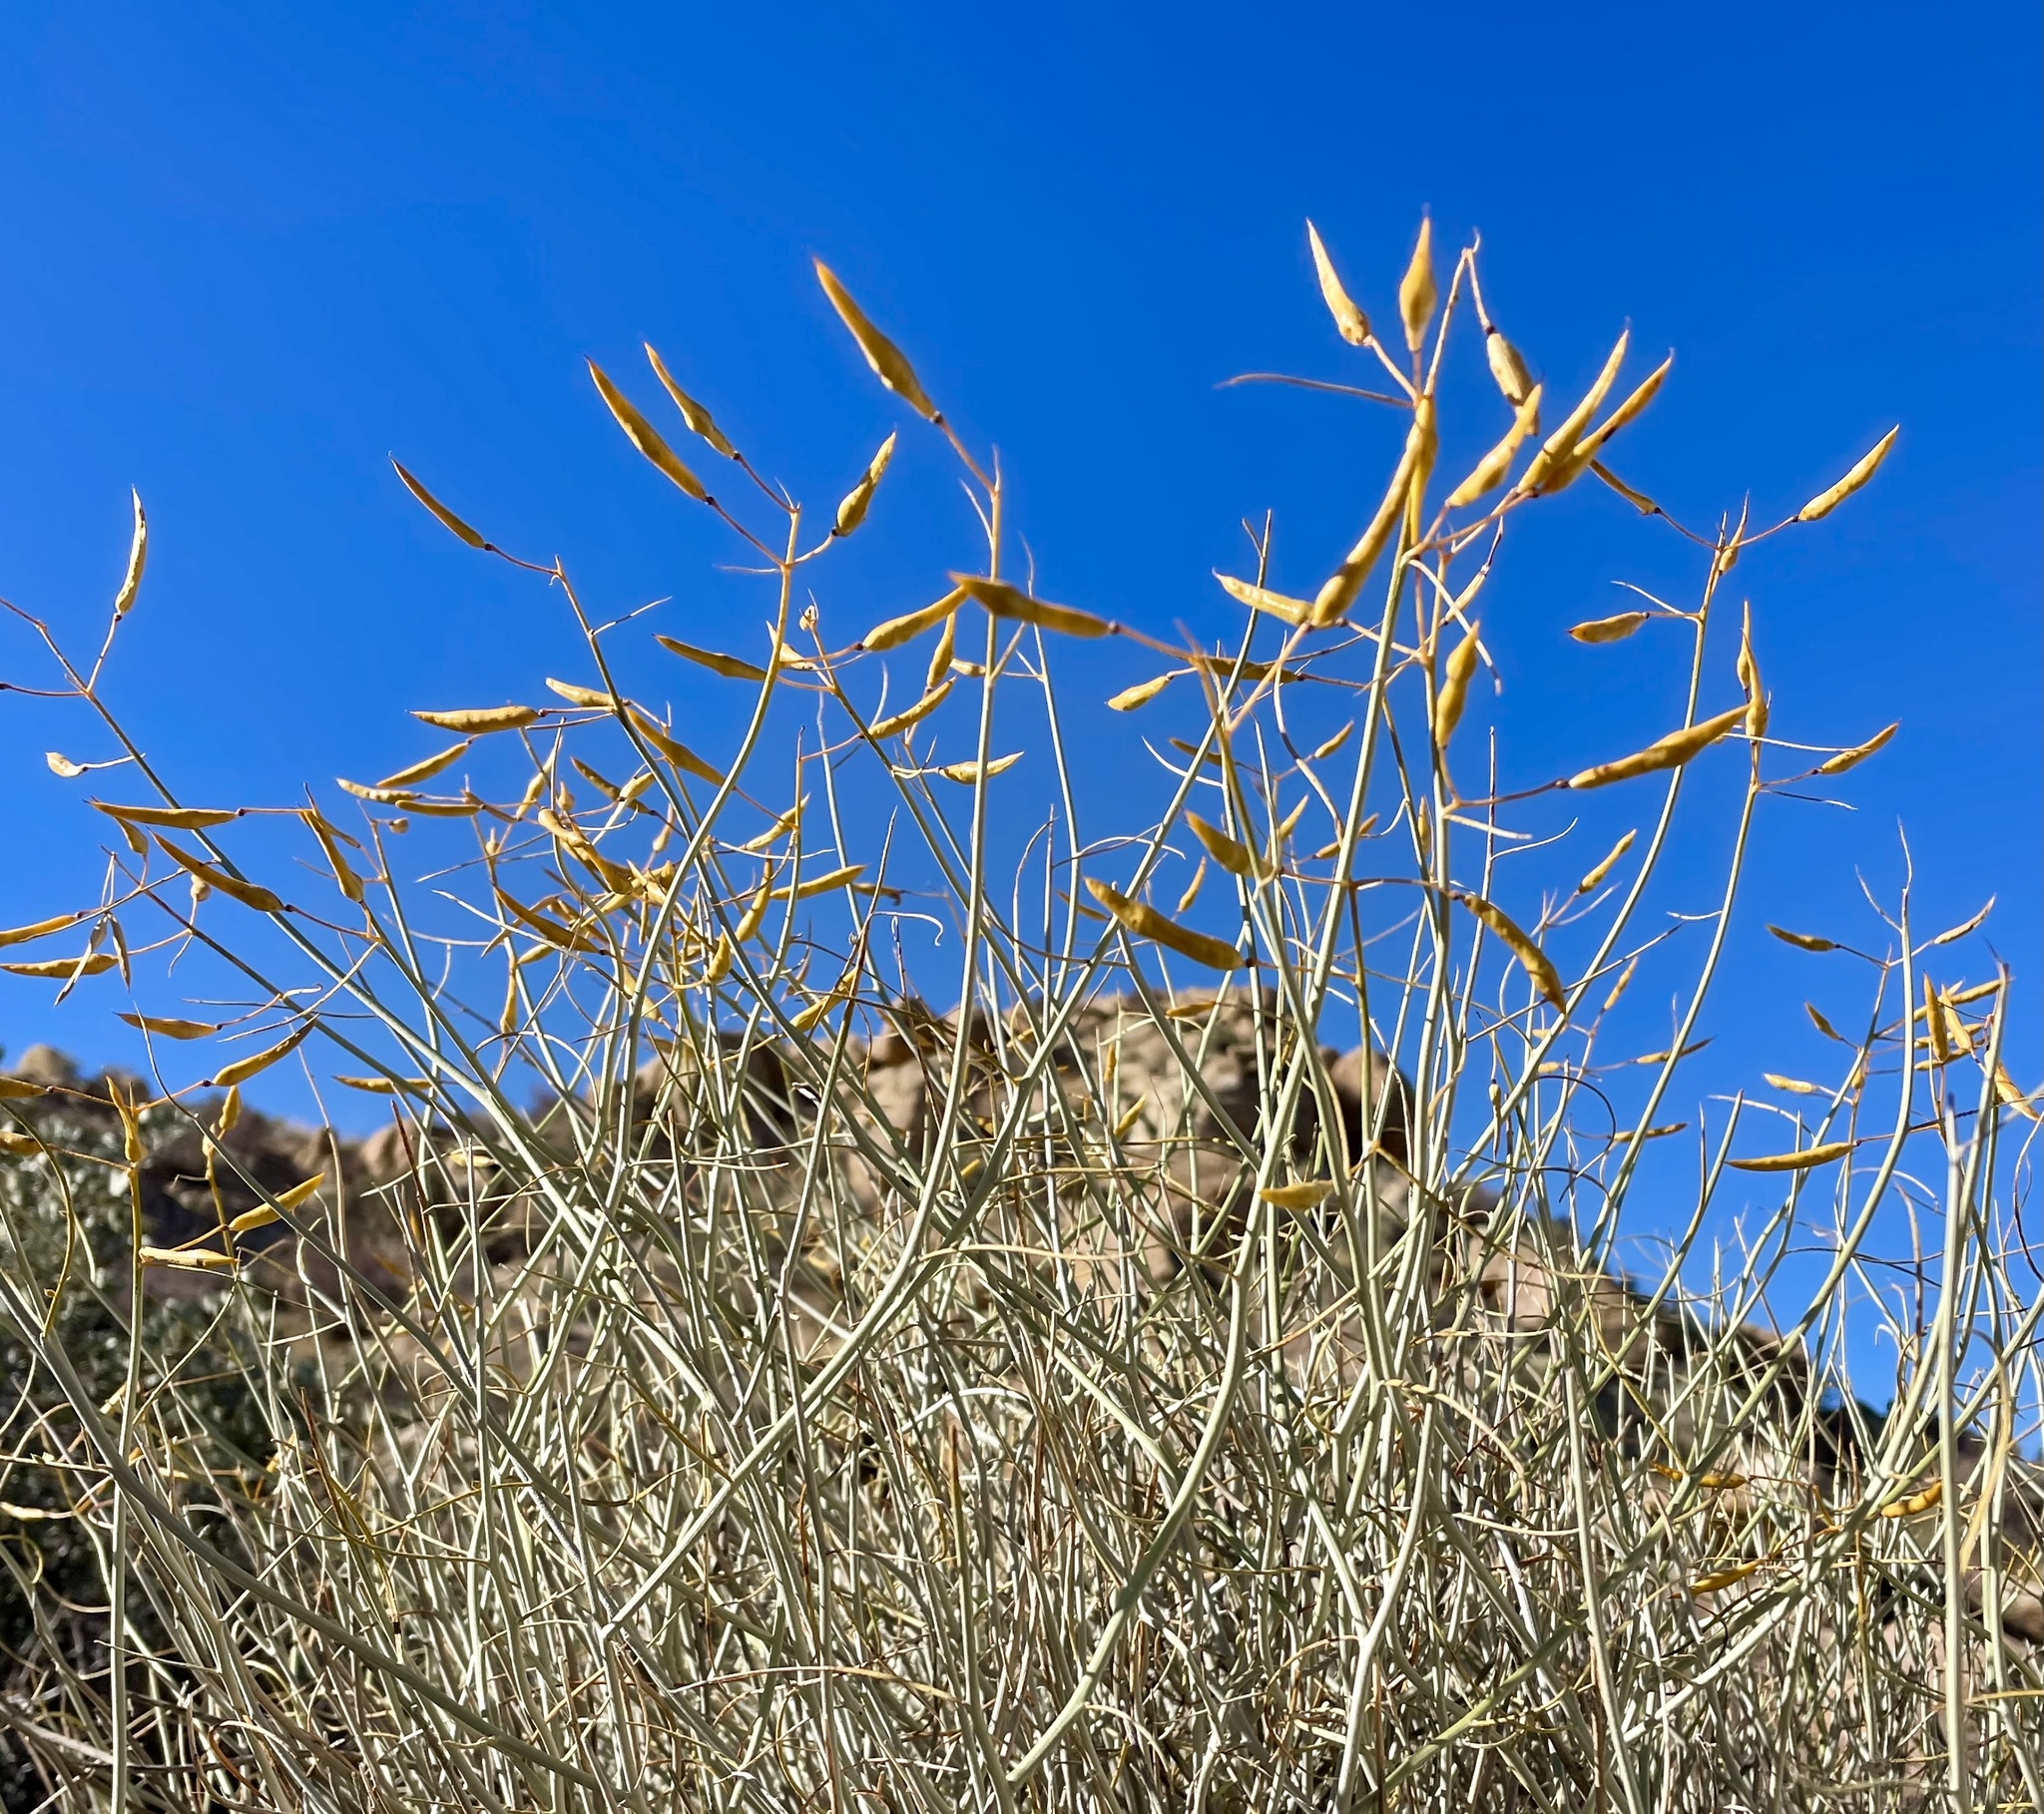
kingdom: Plantae
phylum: Tracheophyta
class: Magnoliopsida
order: Fabales
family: Fabaceae
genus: Senna
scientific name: Senna armata
